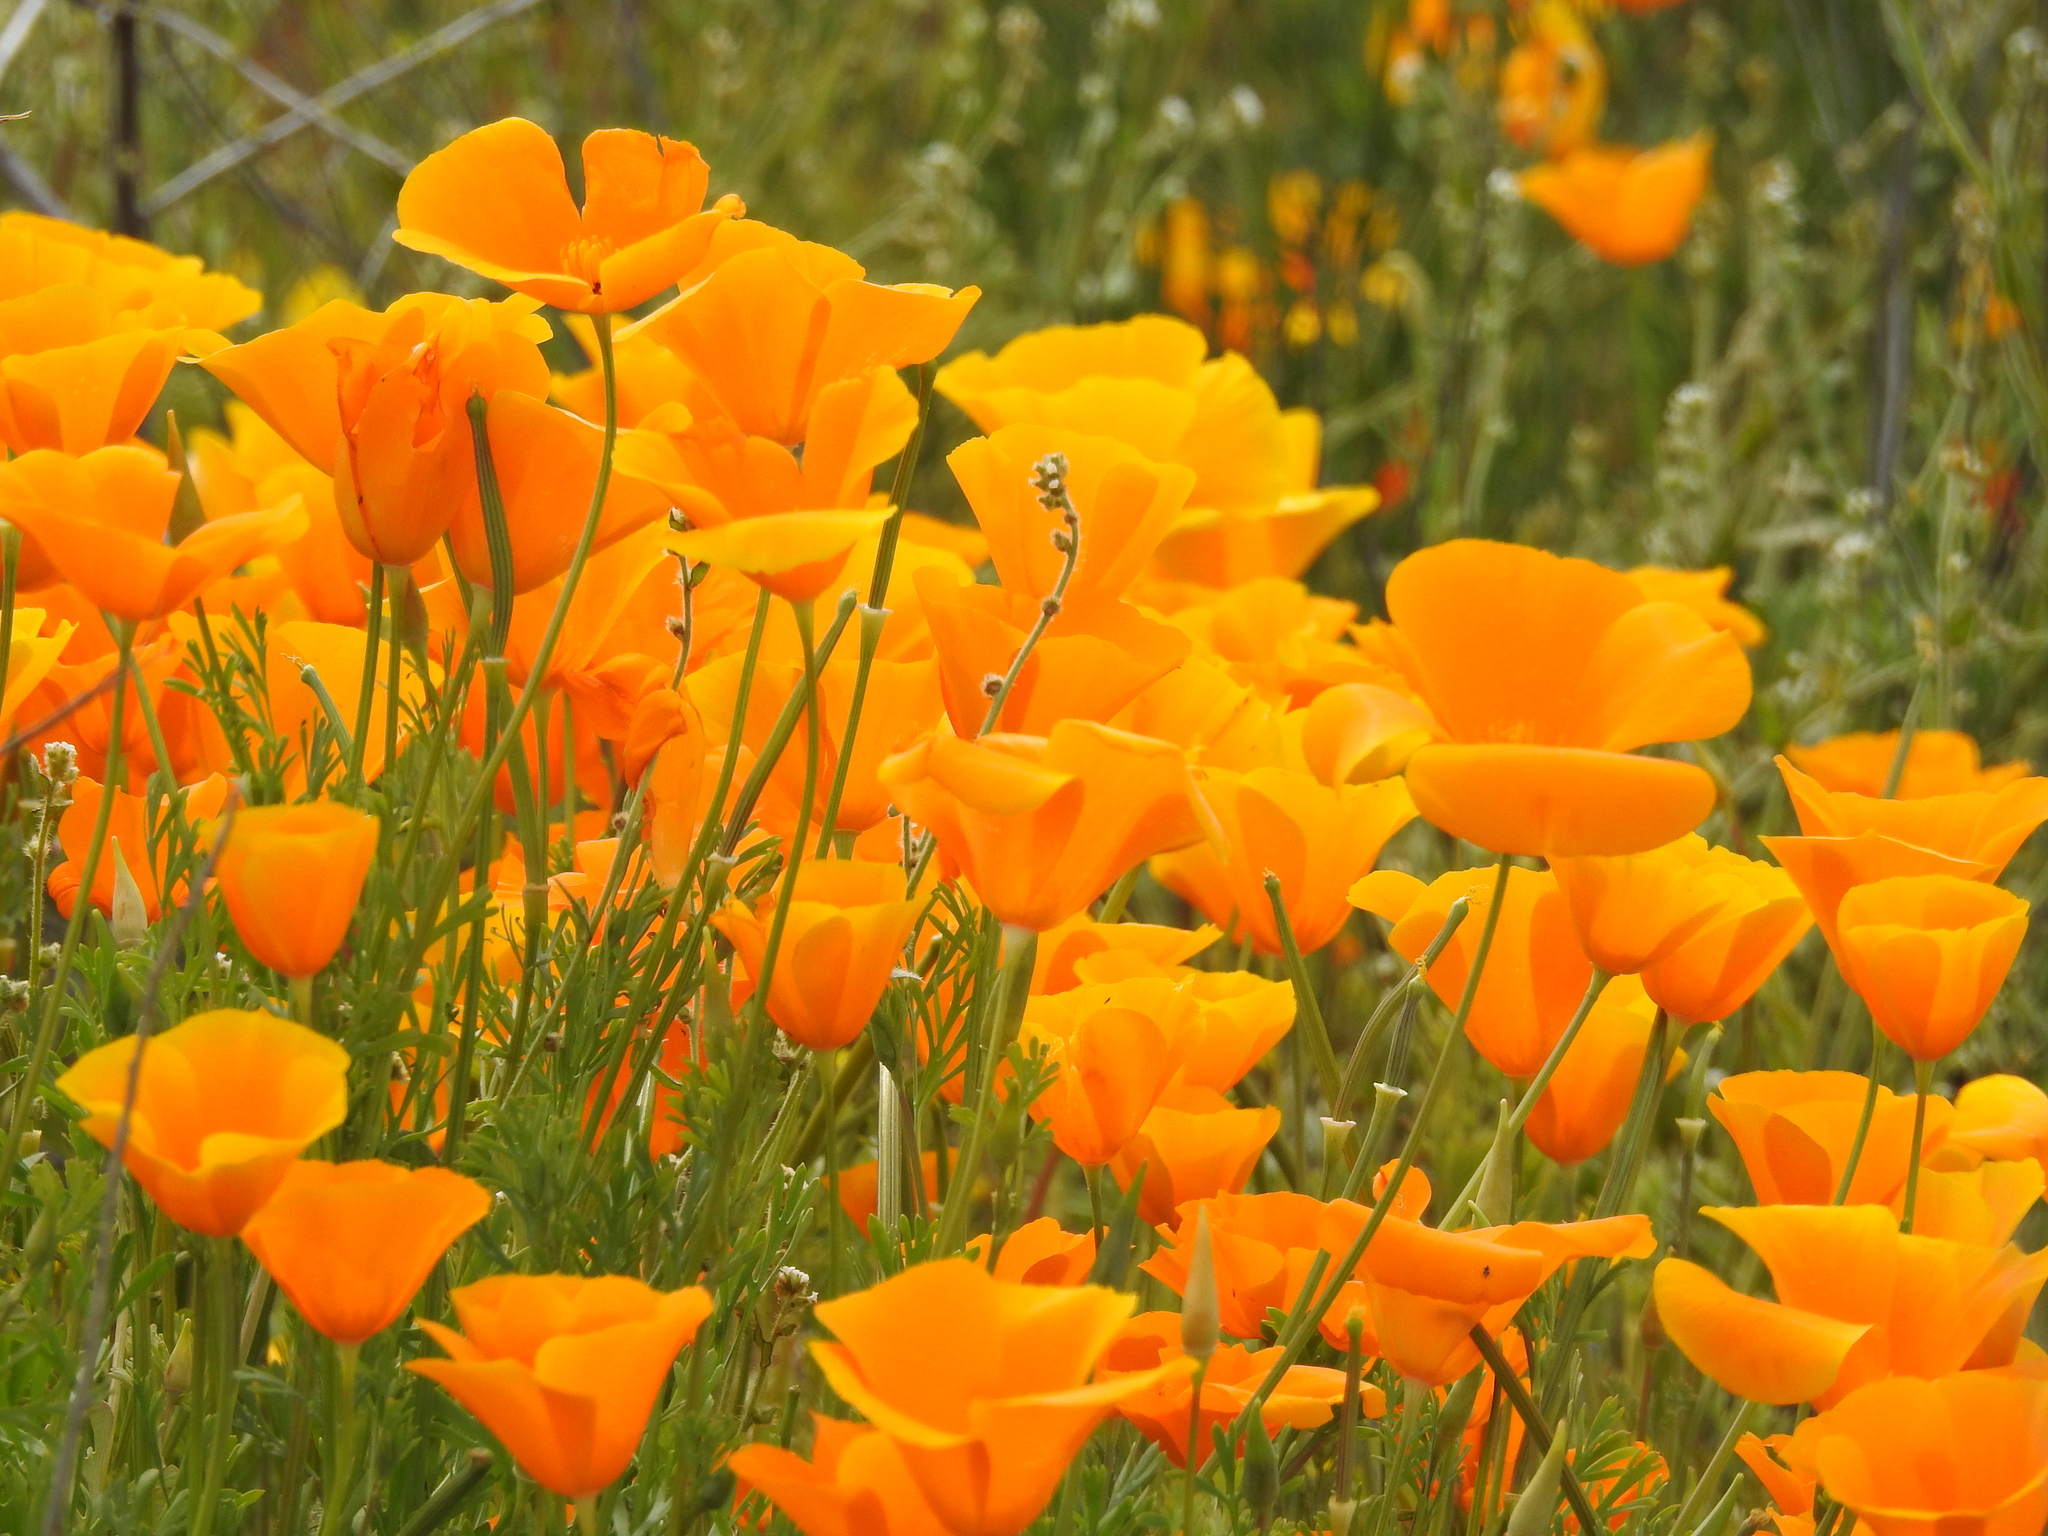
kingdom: Plantae
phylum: Tracheophyta
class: Magnoliopsida
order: Ranunculales
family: Papaveraceae
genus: Eschscholzia
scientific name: Eschscholzia californica
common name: California poppy
